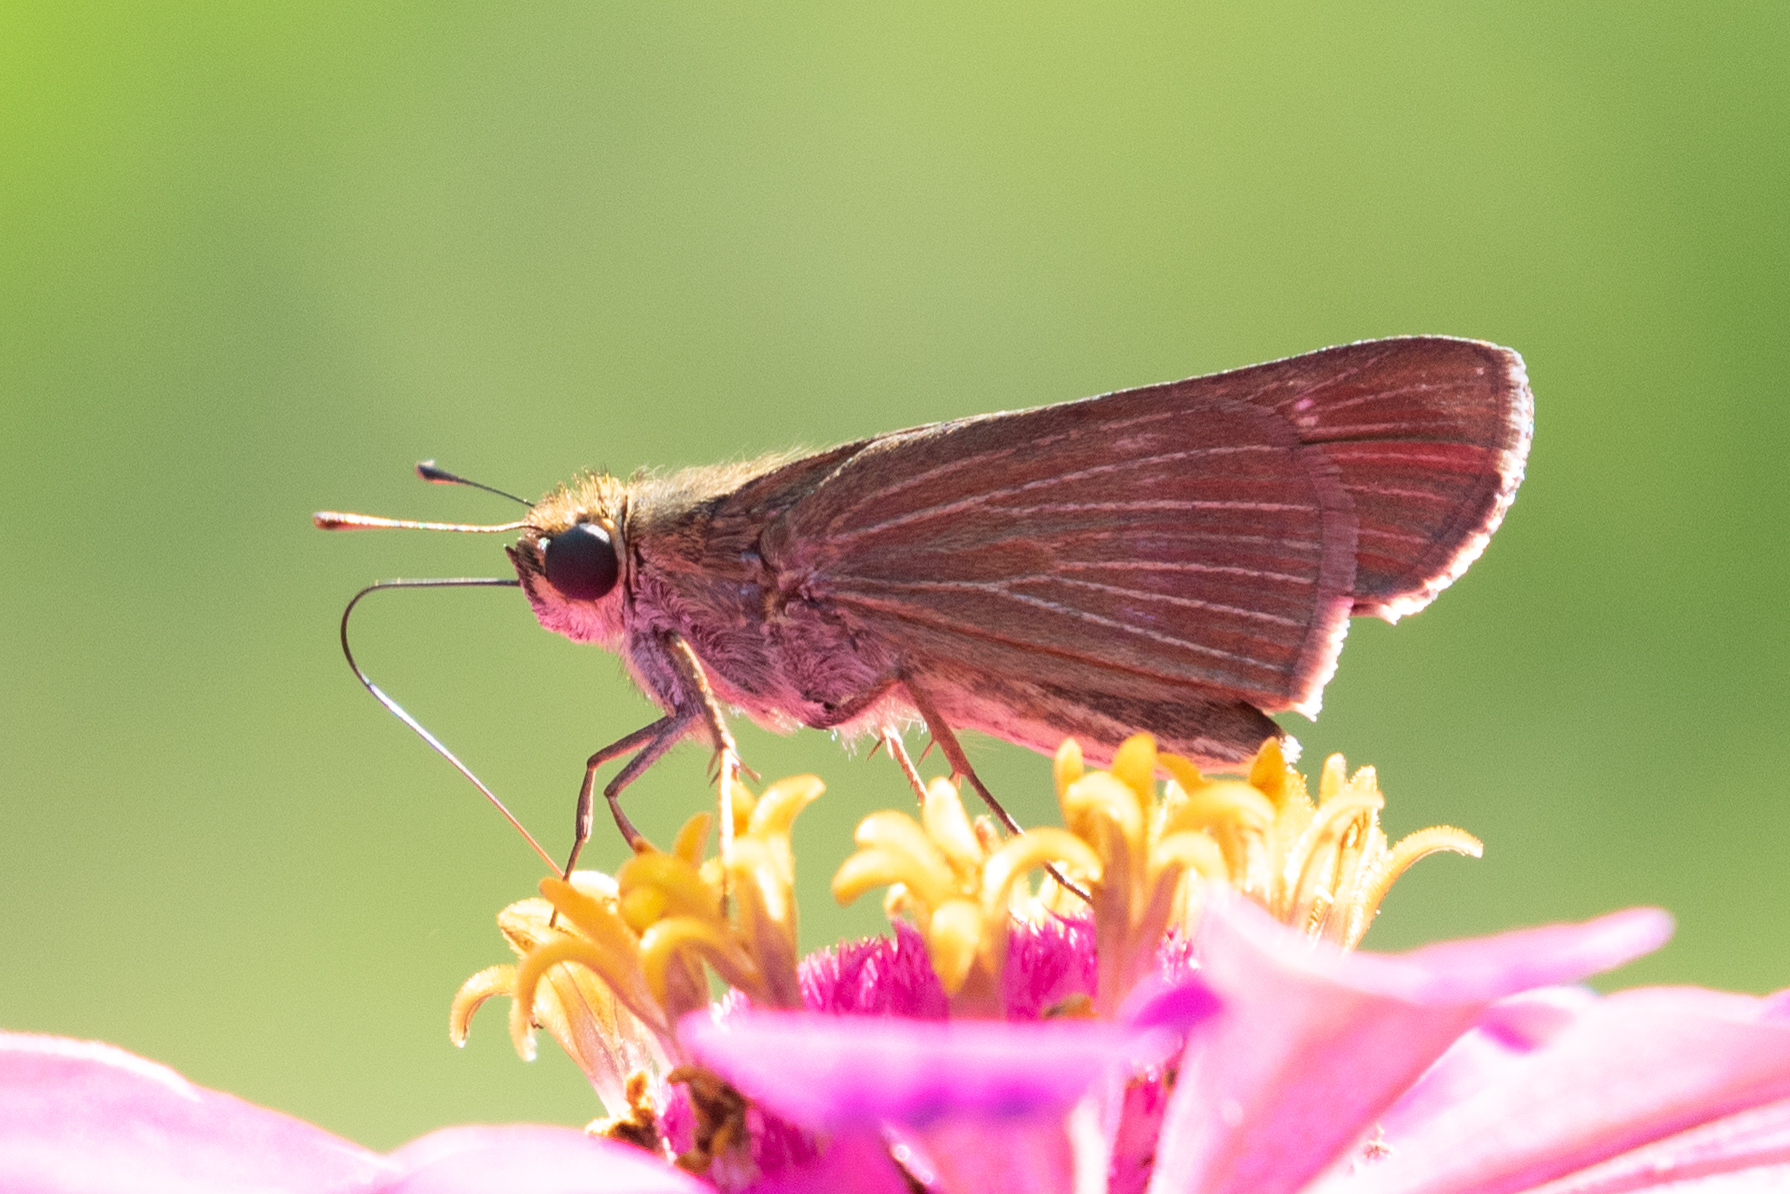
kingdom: Animalia
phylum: Arthropoda
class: Insecta
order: Lepidoptera
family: Hesperiidae
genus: Panoquina
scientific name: Panoquina ocola
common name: Ocola skipper
